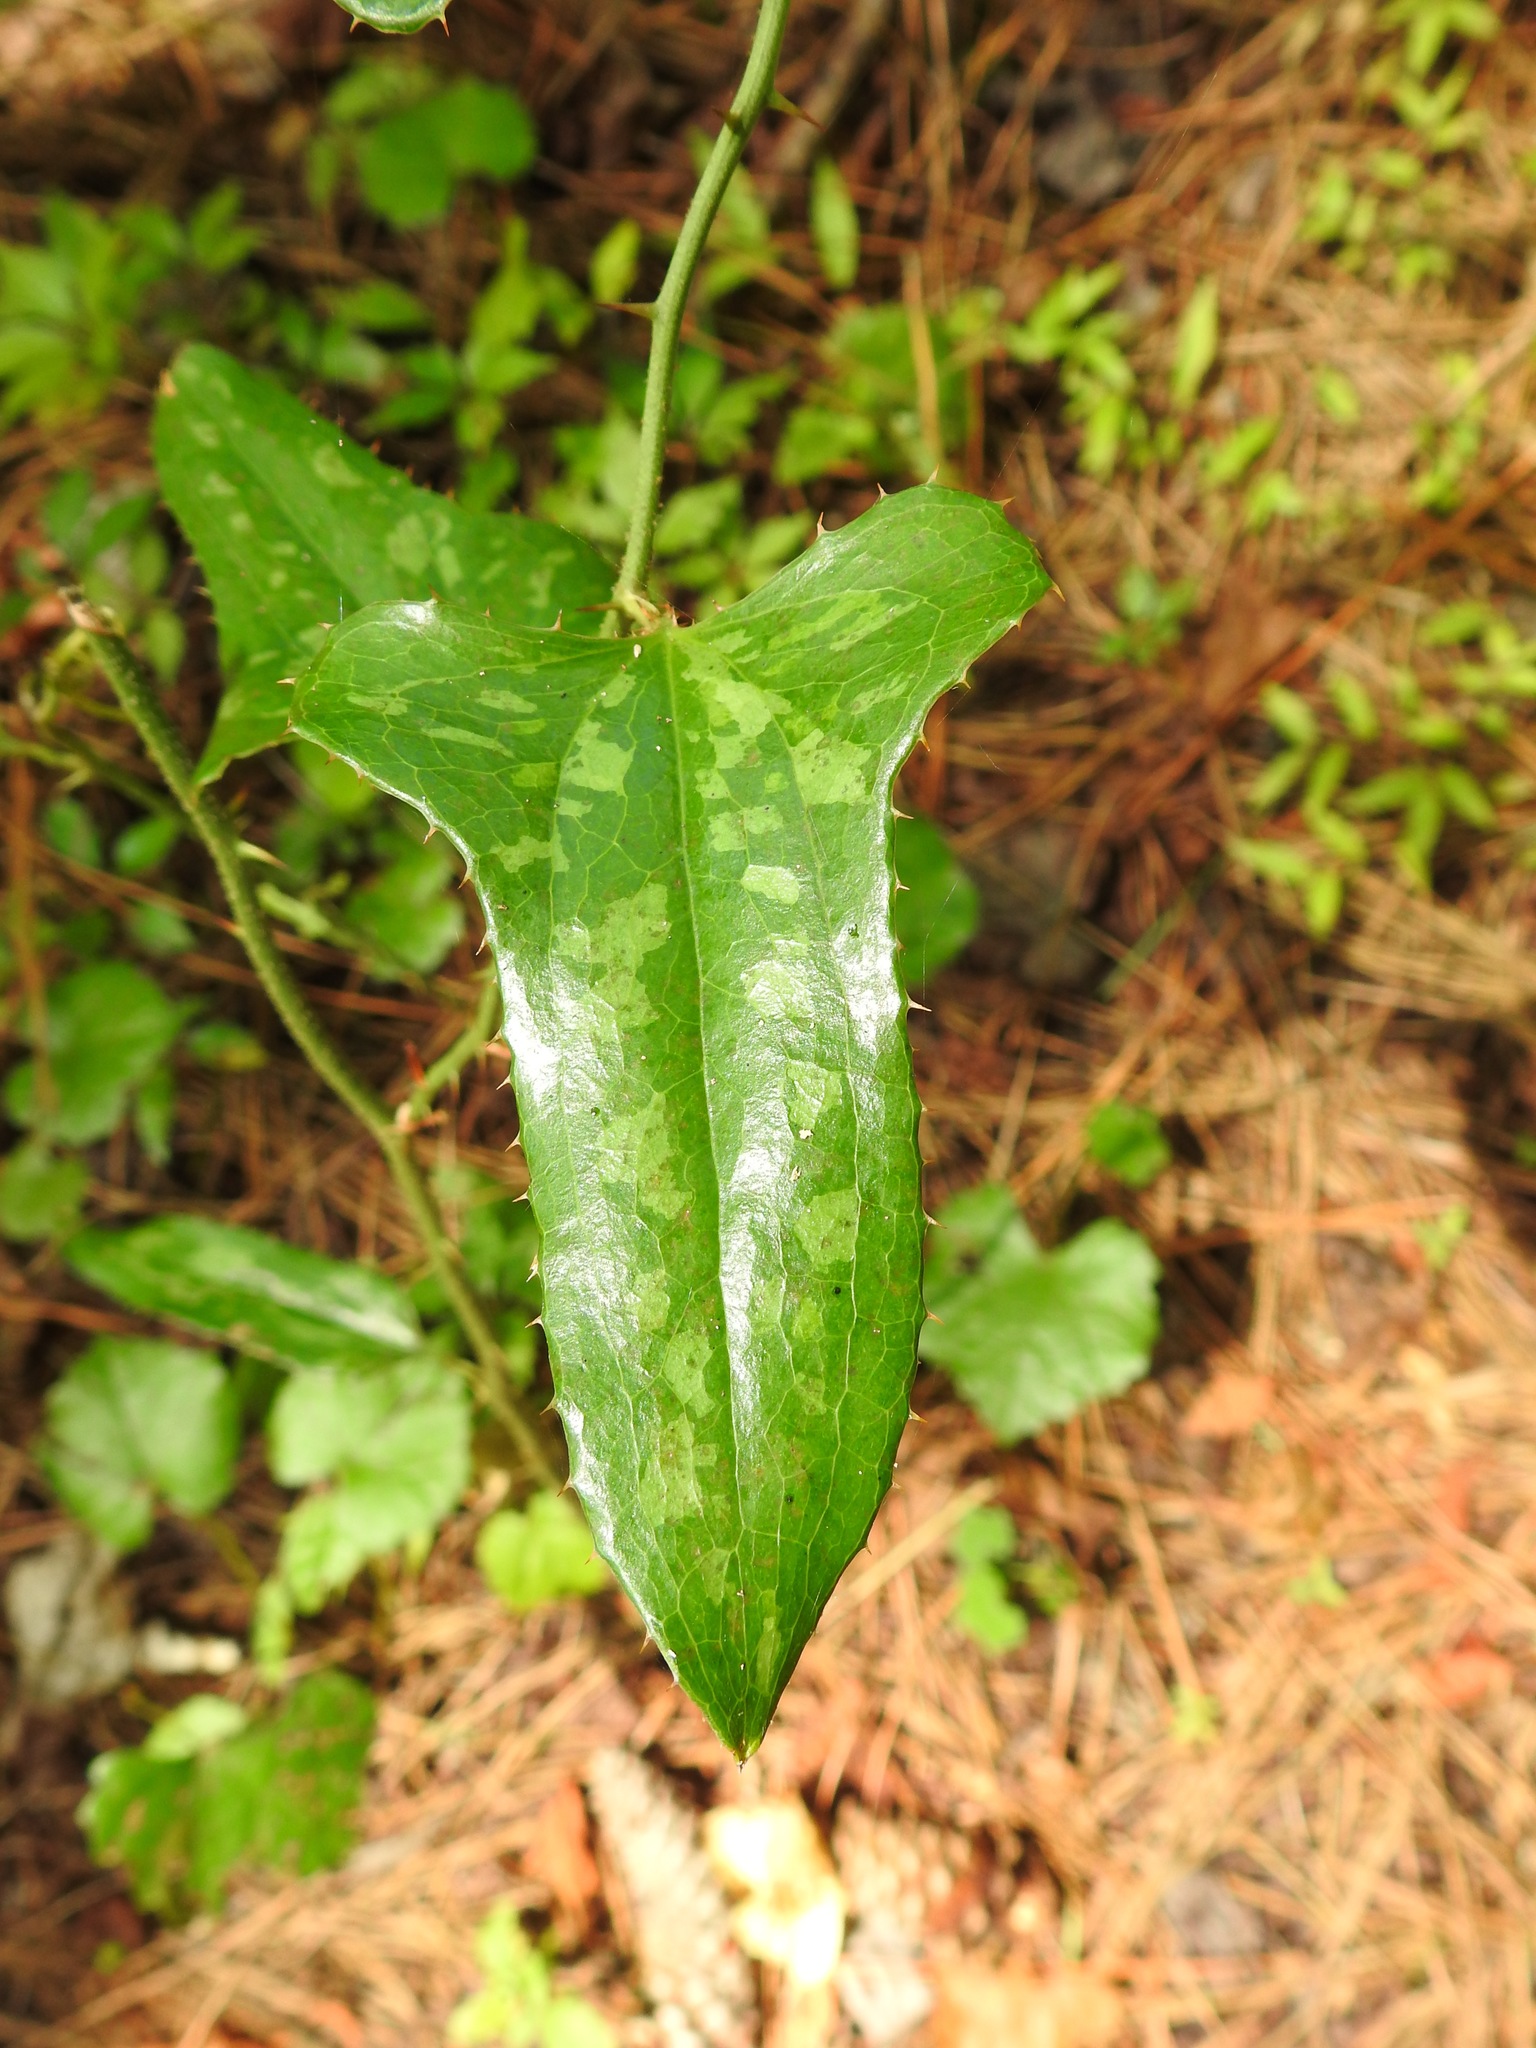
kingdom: Plantae
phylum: Tracheophyta
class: Liliopsida
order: Liliales
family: Smilacaceae
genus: Smilax
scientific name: Smilax bona-nox
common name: Catbrier
